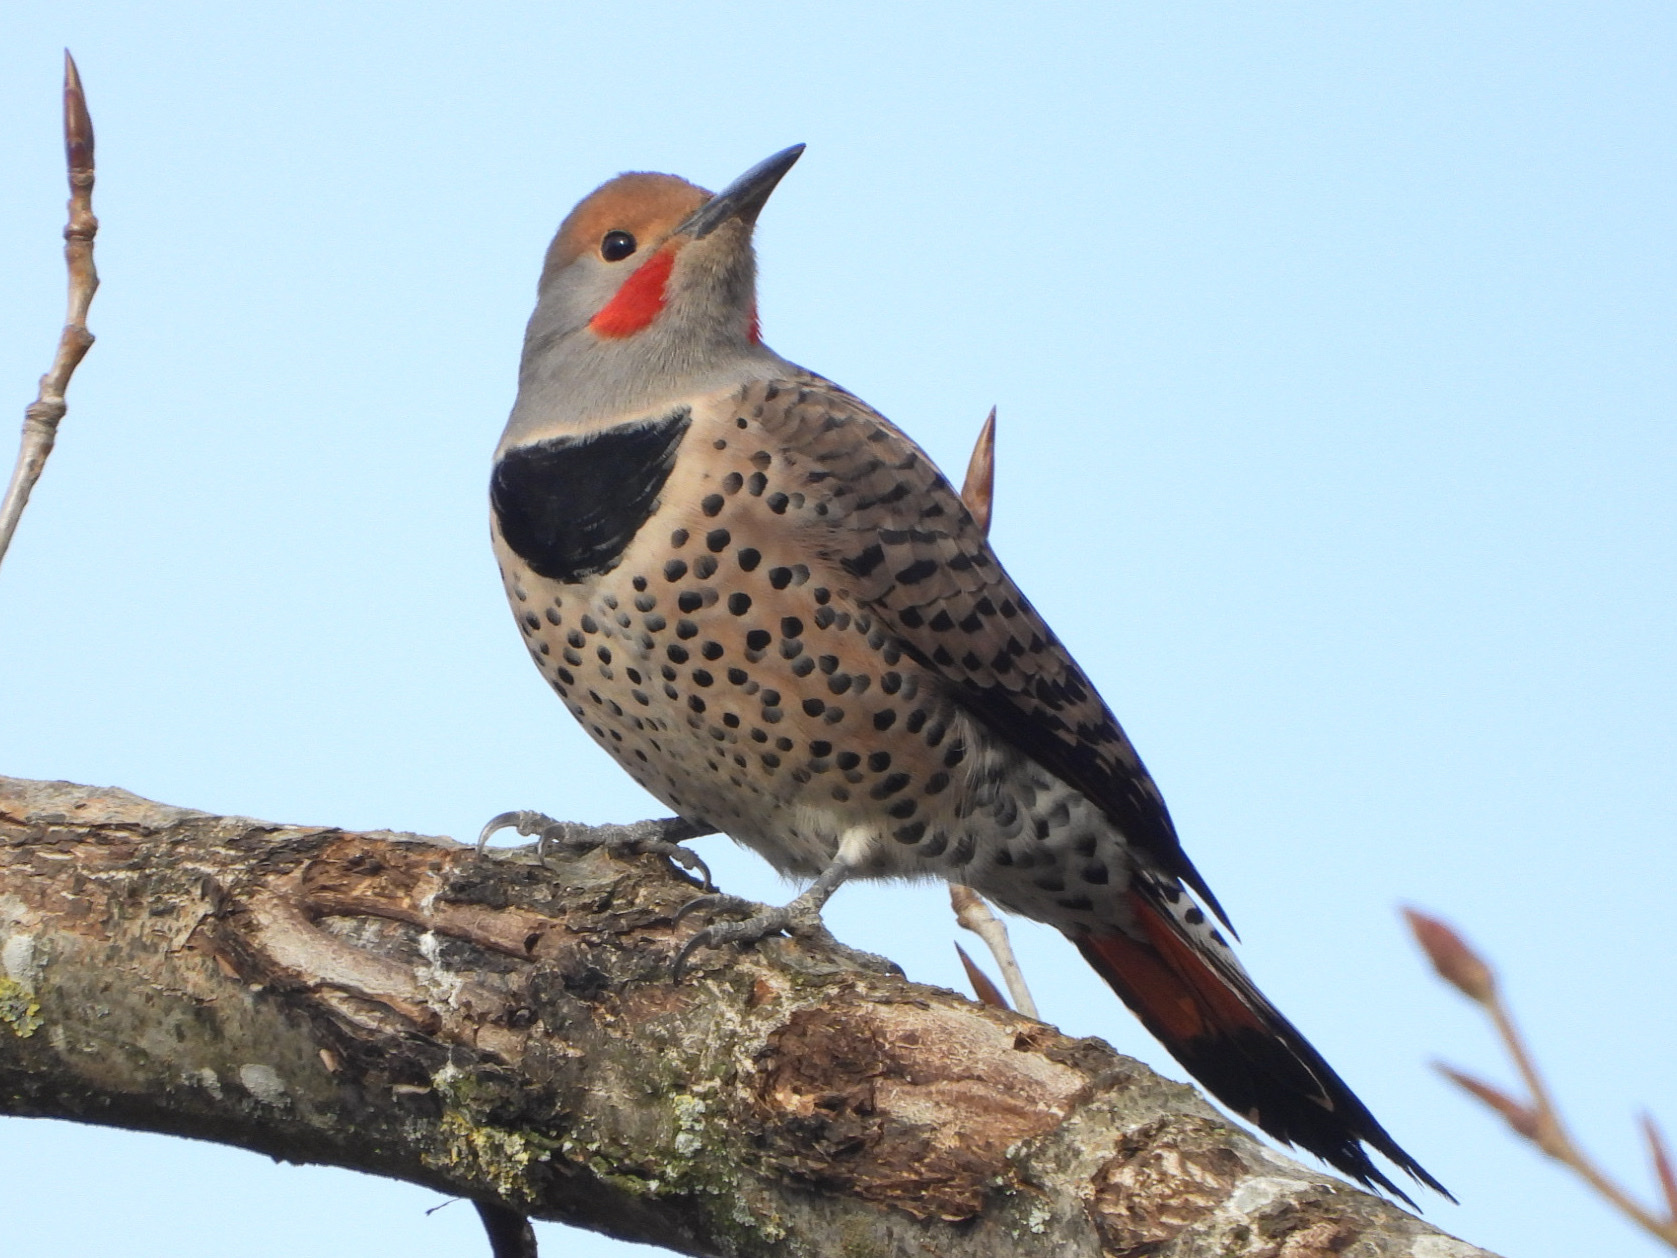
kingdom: Animalia
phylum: Chordata
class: Aves
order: Piciformes
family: Picidae
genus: Colaptes
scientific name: Colaptes auratus
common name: Northern flicker
